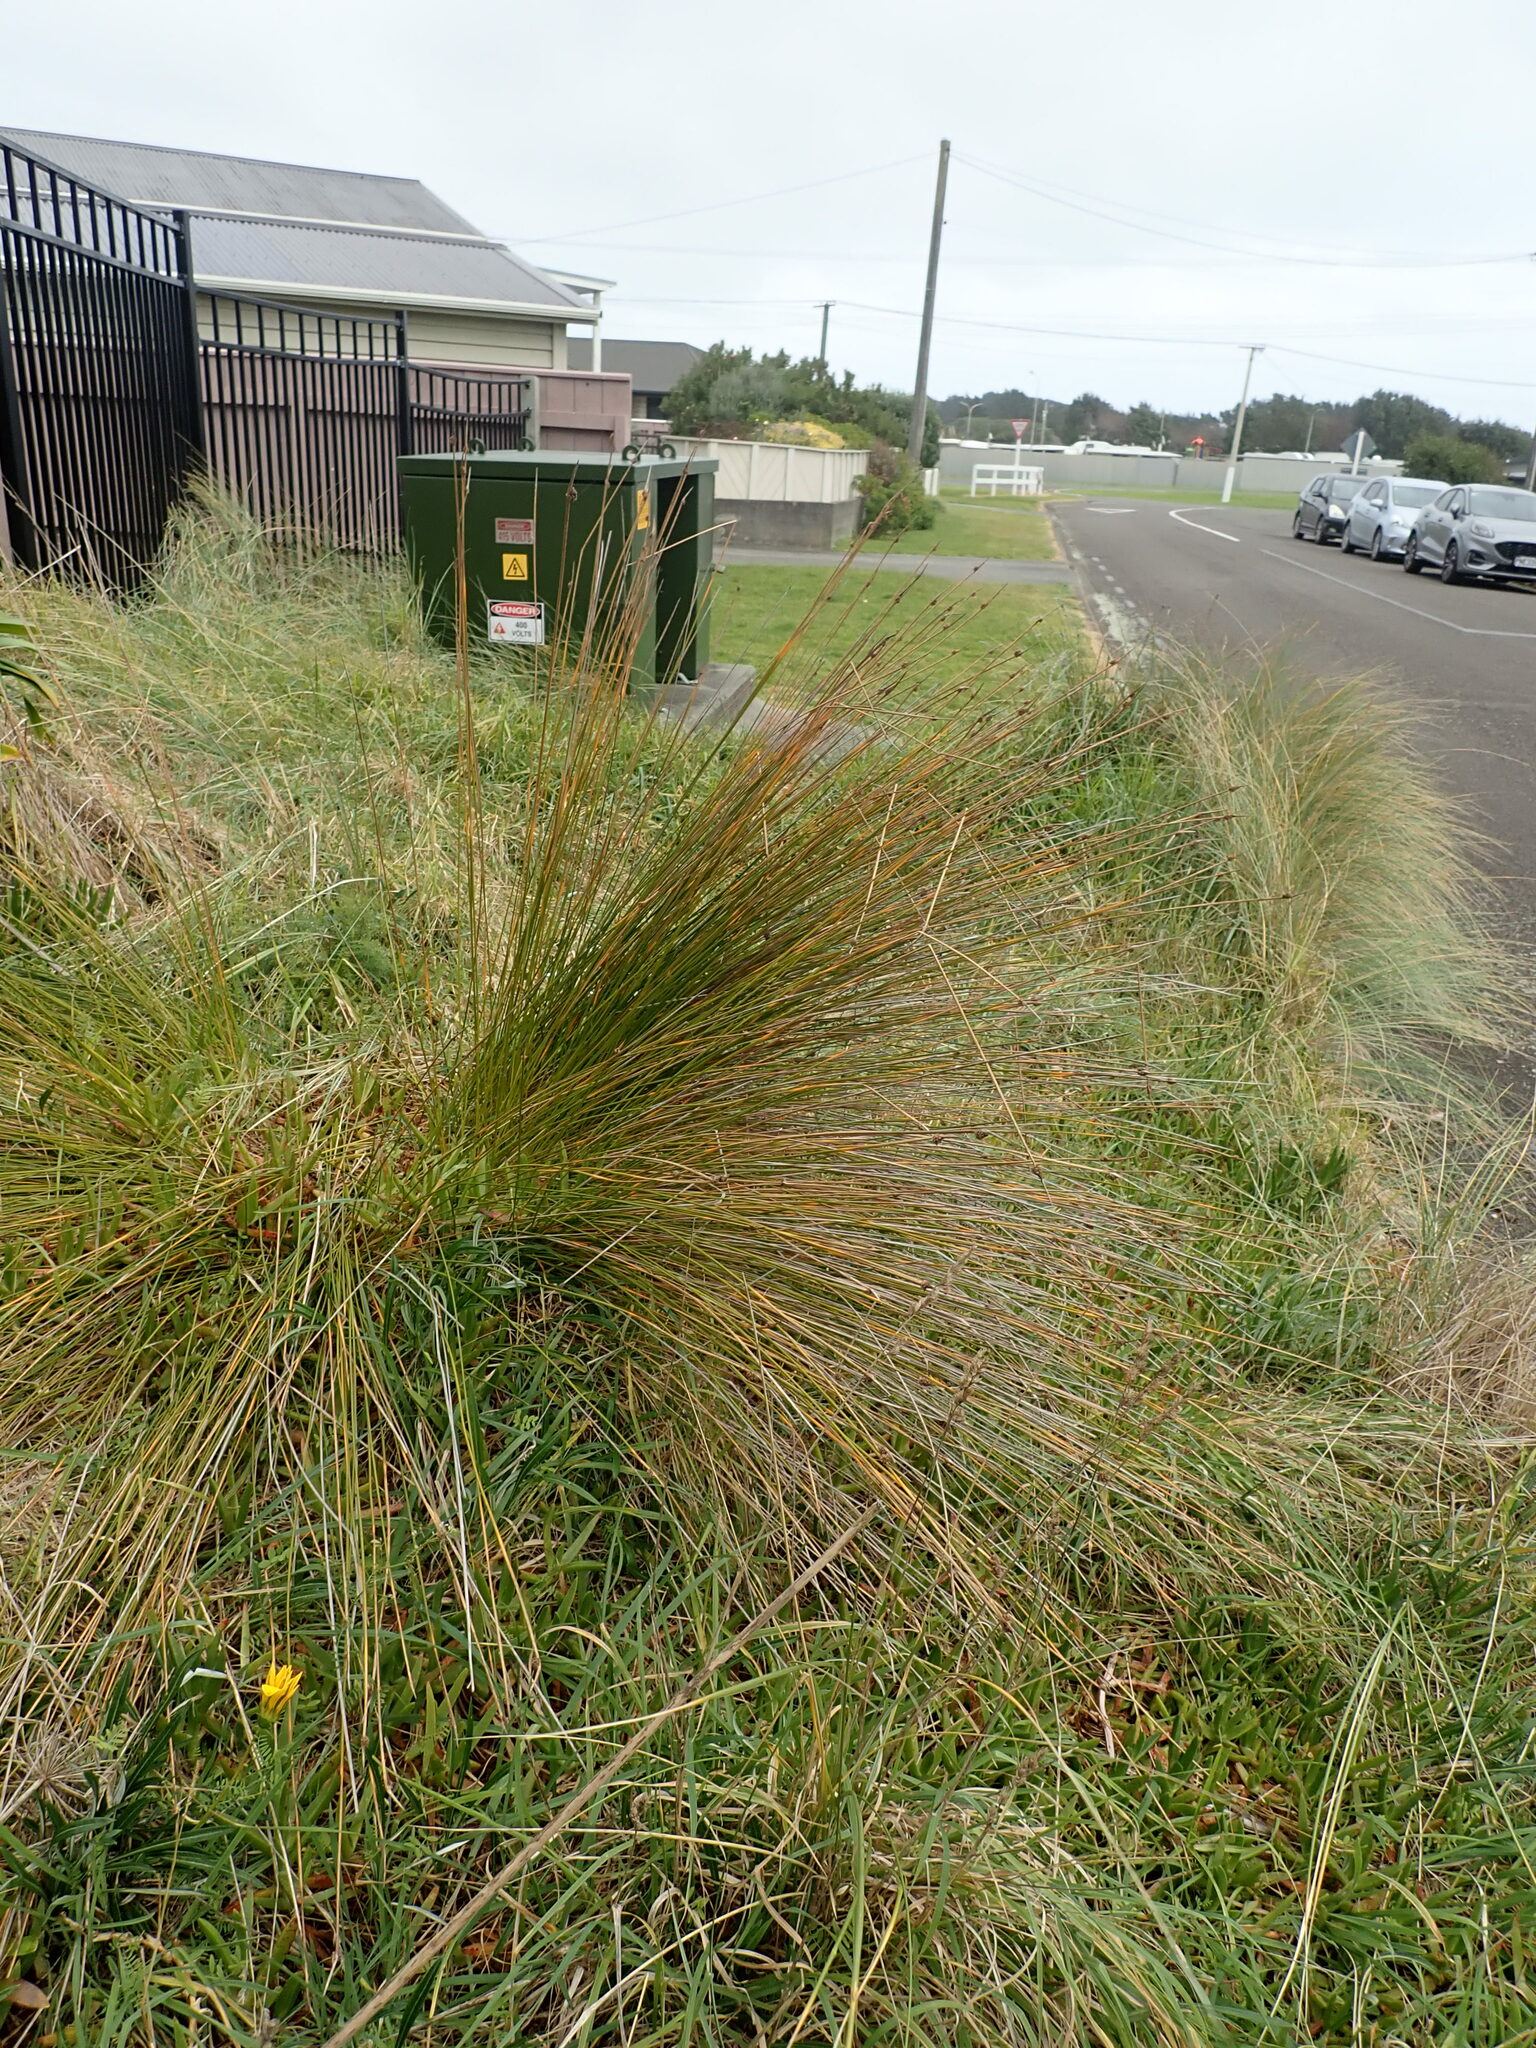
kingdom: Plantae
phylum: Tracheophyta
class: Liliopsida
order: Poales
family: Cyperaceae
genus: Ficinia
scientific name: Ficinia nodosa
